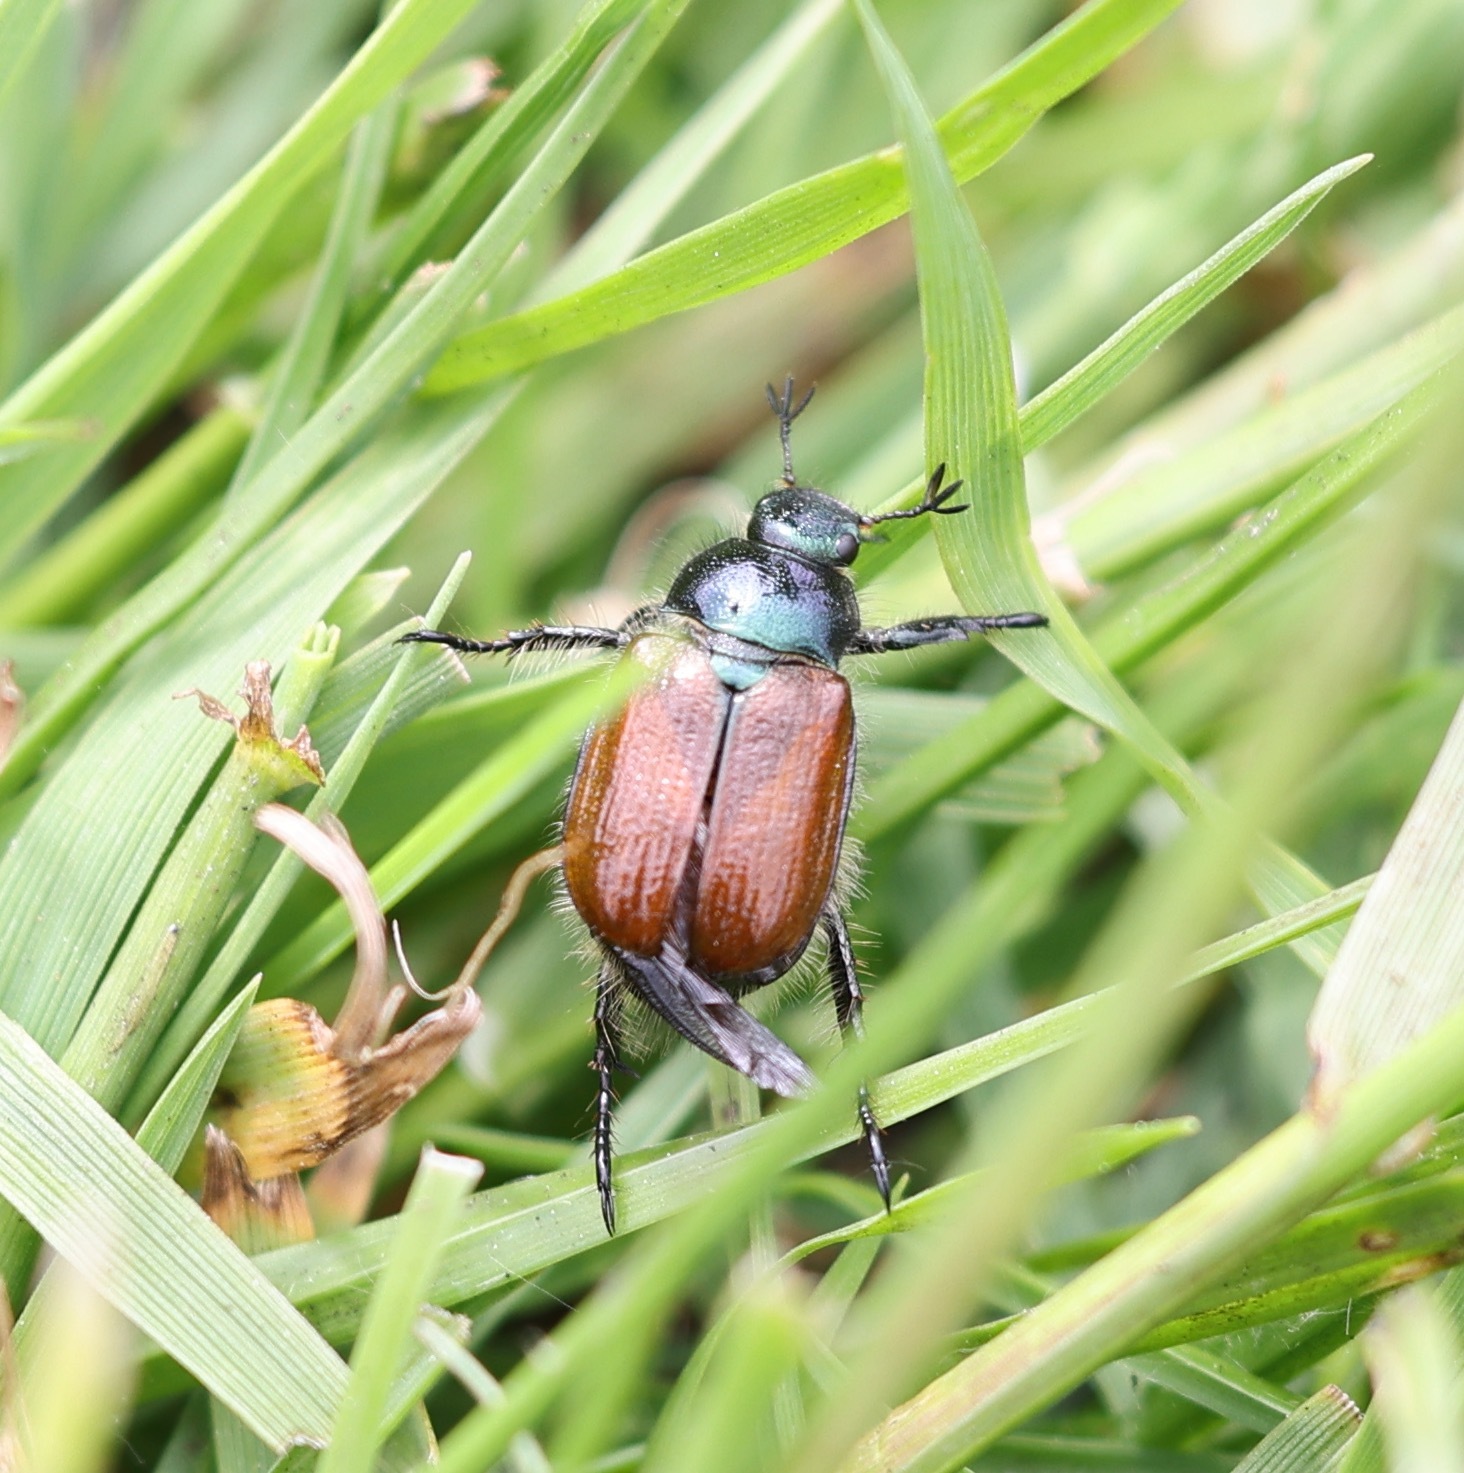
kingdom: Animalia
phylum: Arthropoda
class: Insecta
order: Coleoptera
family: Scarabaeidae
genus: Phyllopertha
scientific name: Phyllopertha horticola
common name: Garden chafer
